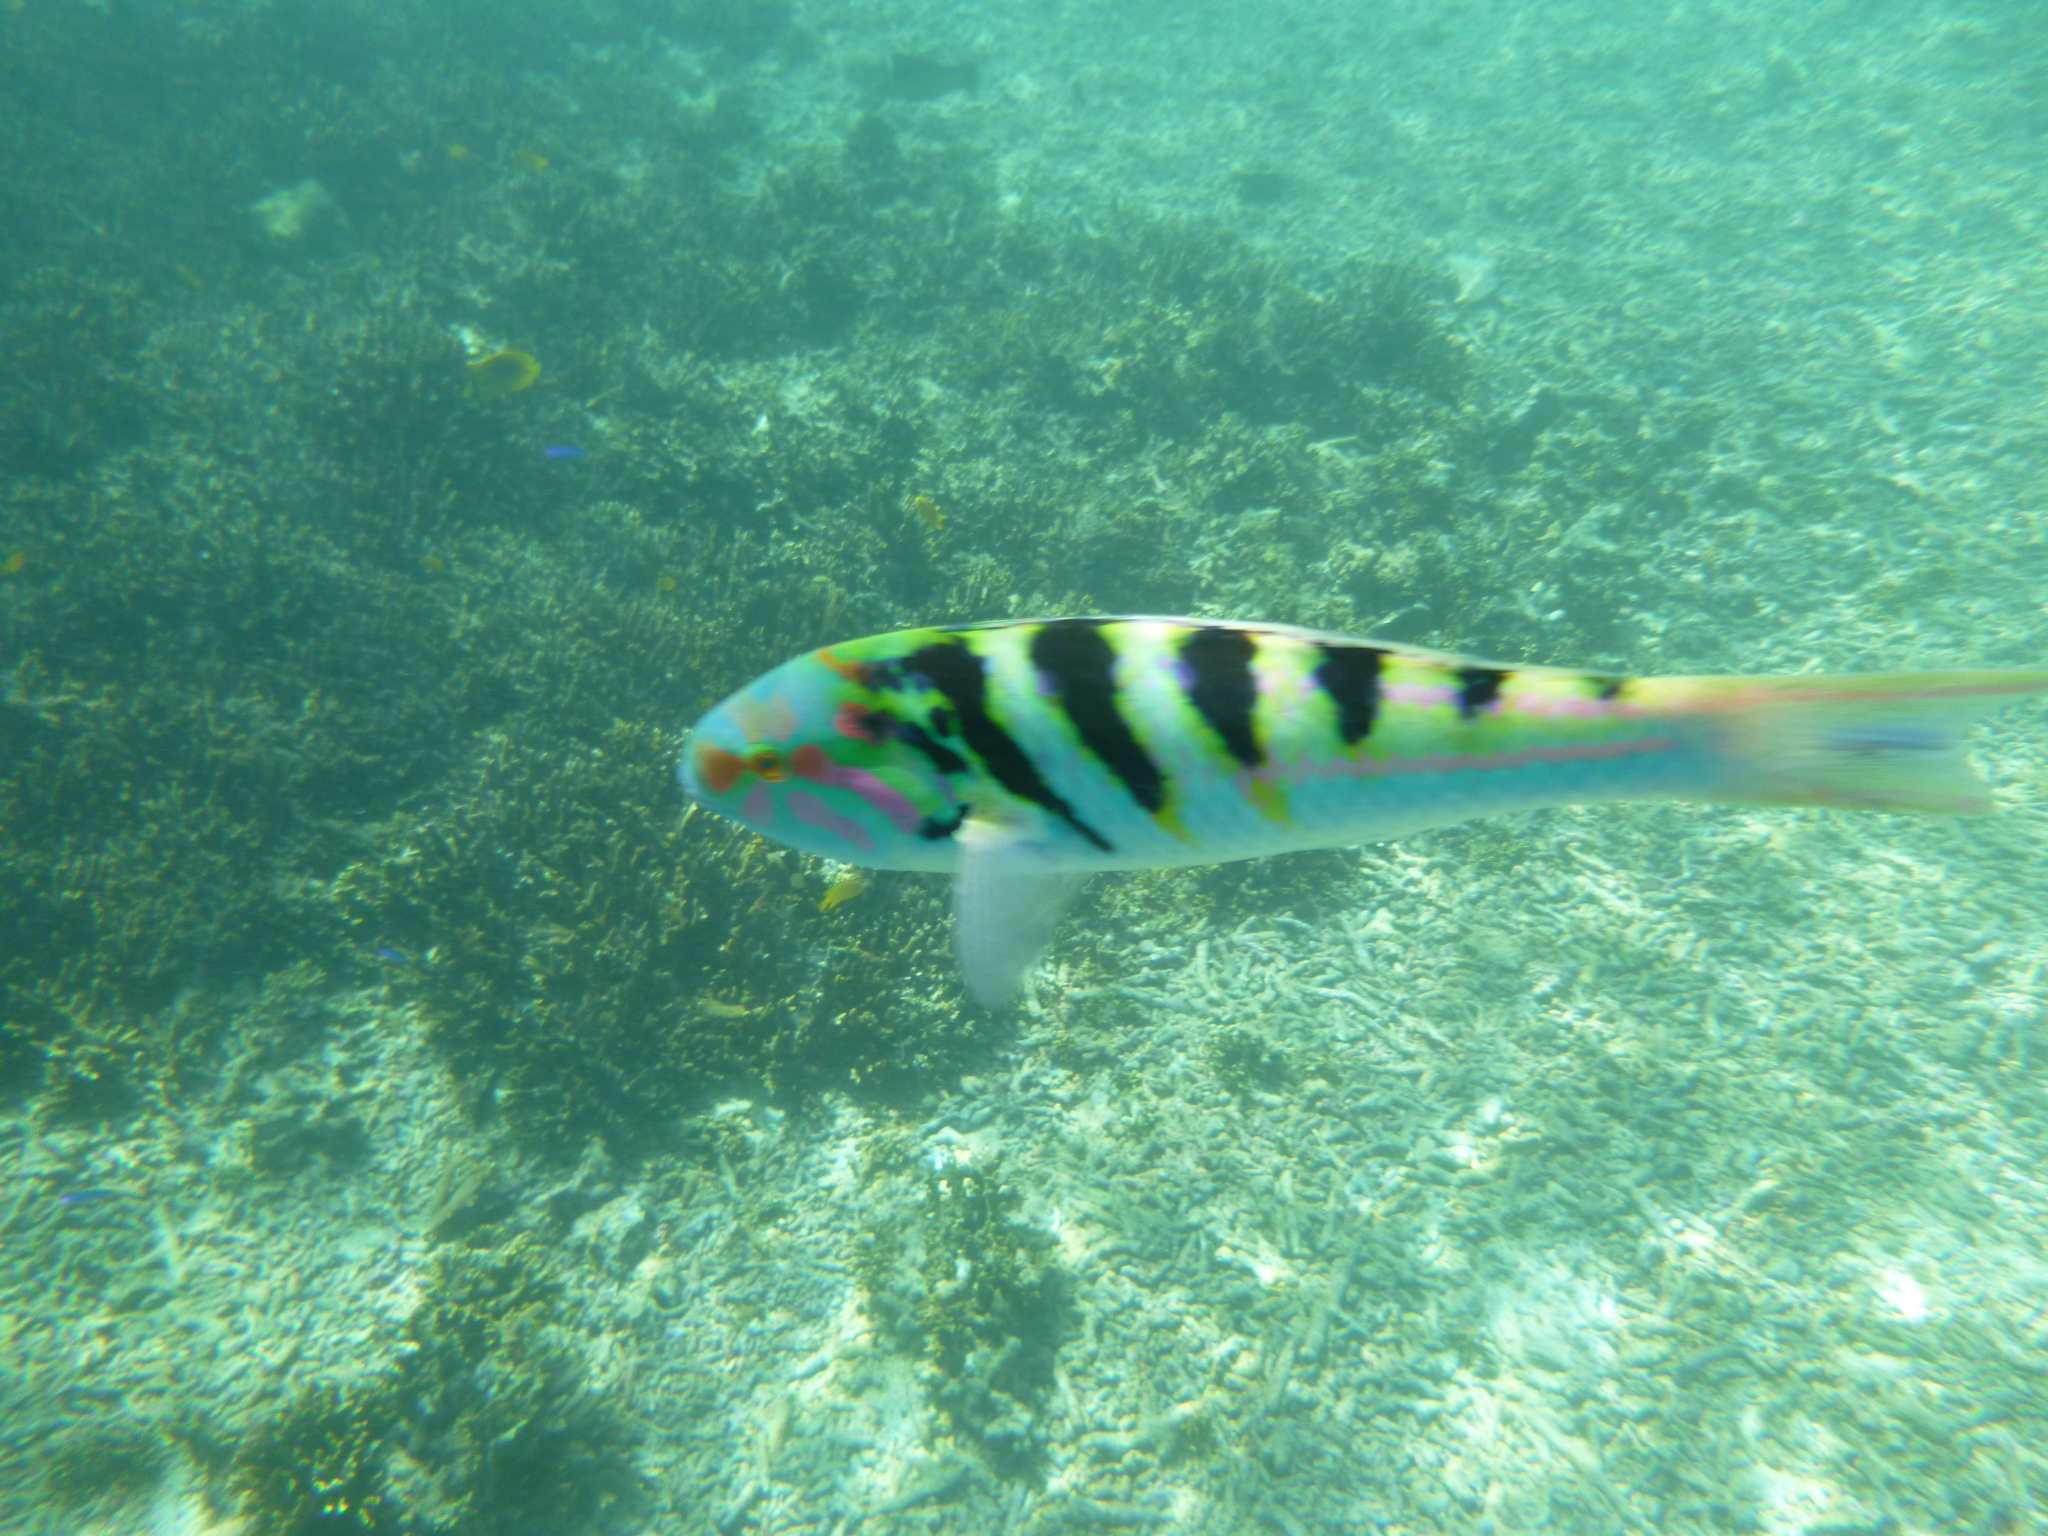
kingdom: Animalia
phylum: Chordata
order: Perciformes
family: Labridae
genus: Thalassoma
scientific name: Thalassoma hardwicke
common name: Sixbar wrasse
